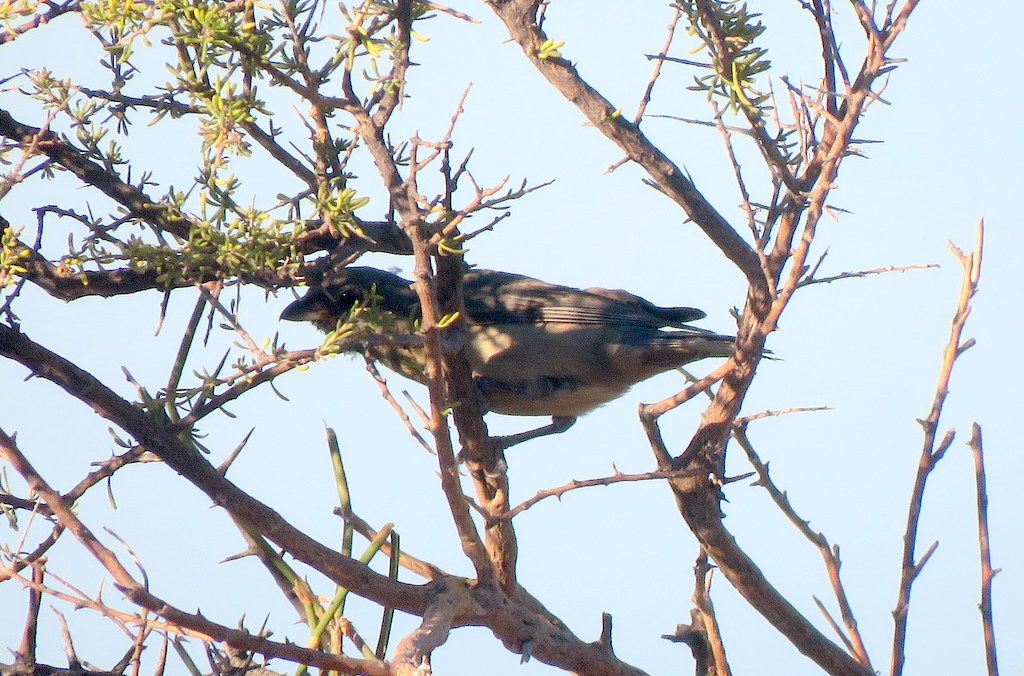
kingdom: Animalia
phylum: Chordata
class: Aves
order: Passeriformes
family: Thraupidae
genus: Rauenia
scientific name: Rauenia bonariensis
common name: Blue-and-yellow tanager
